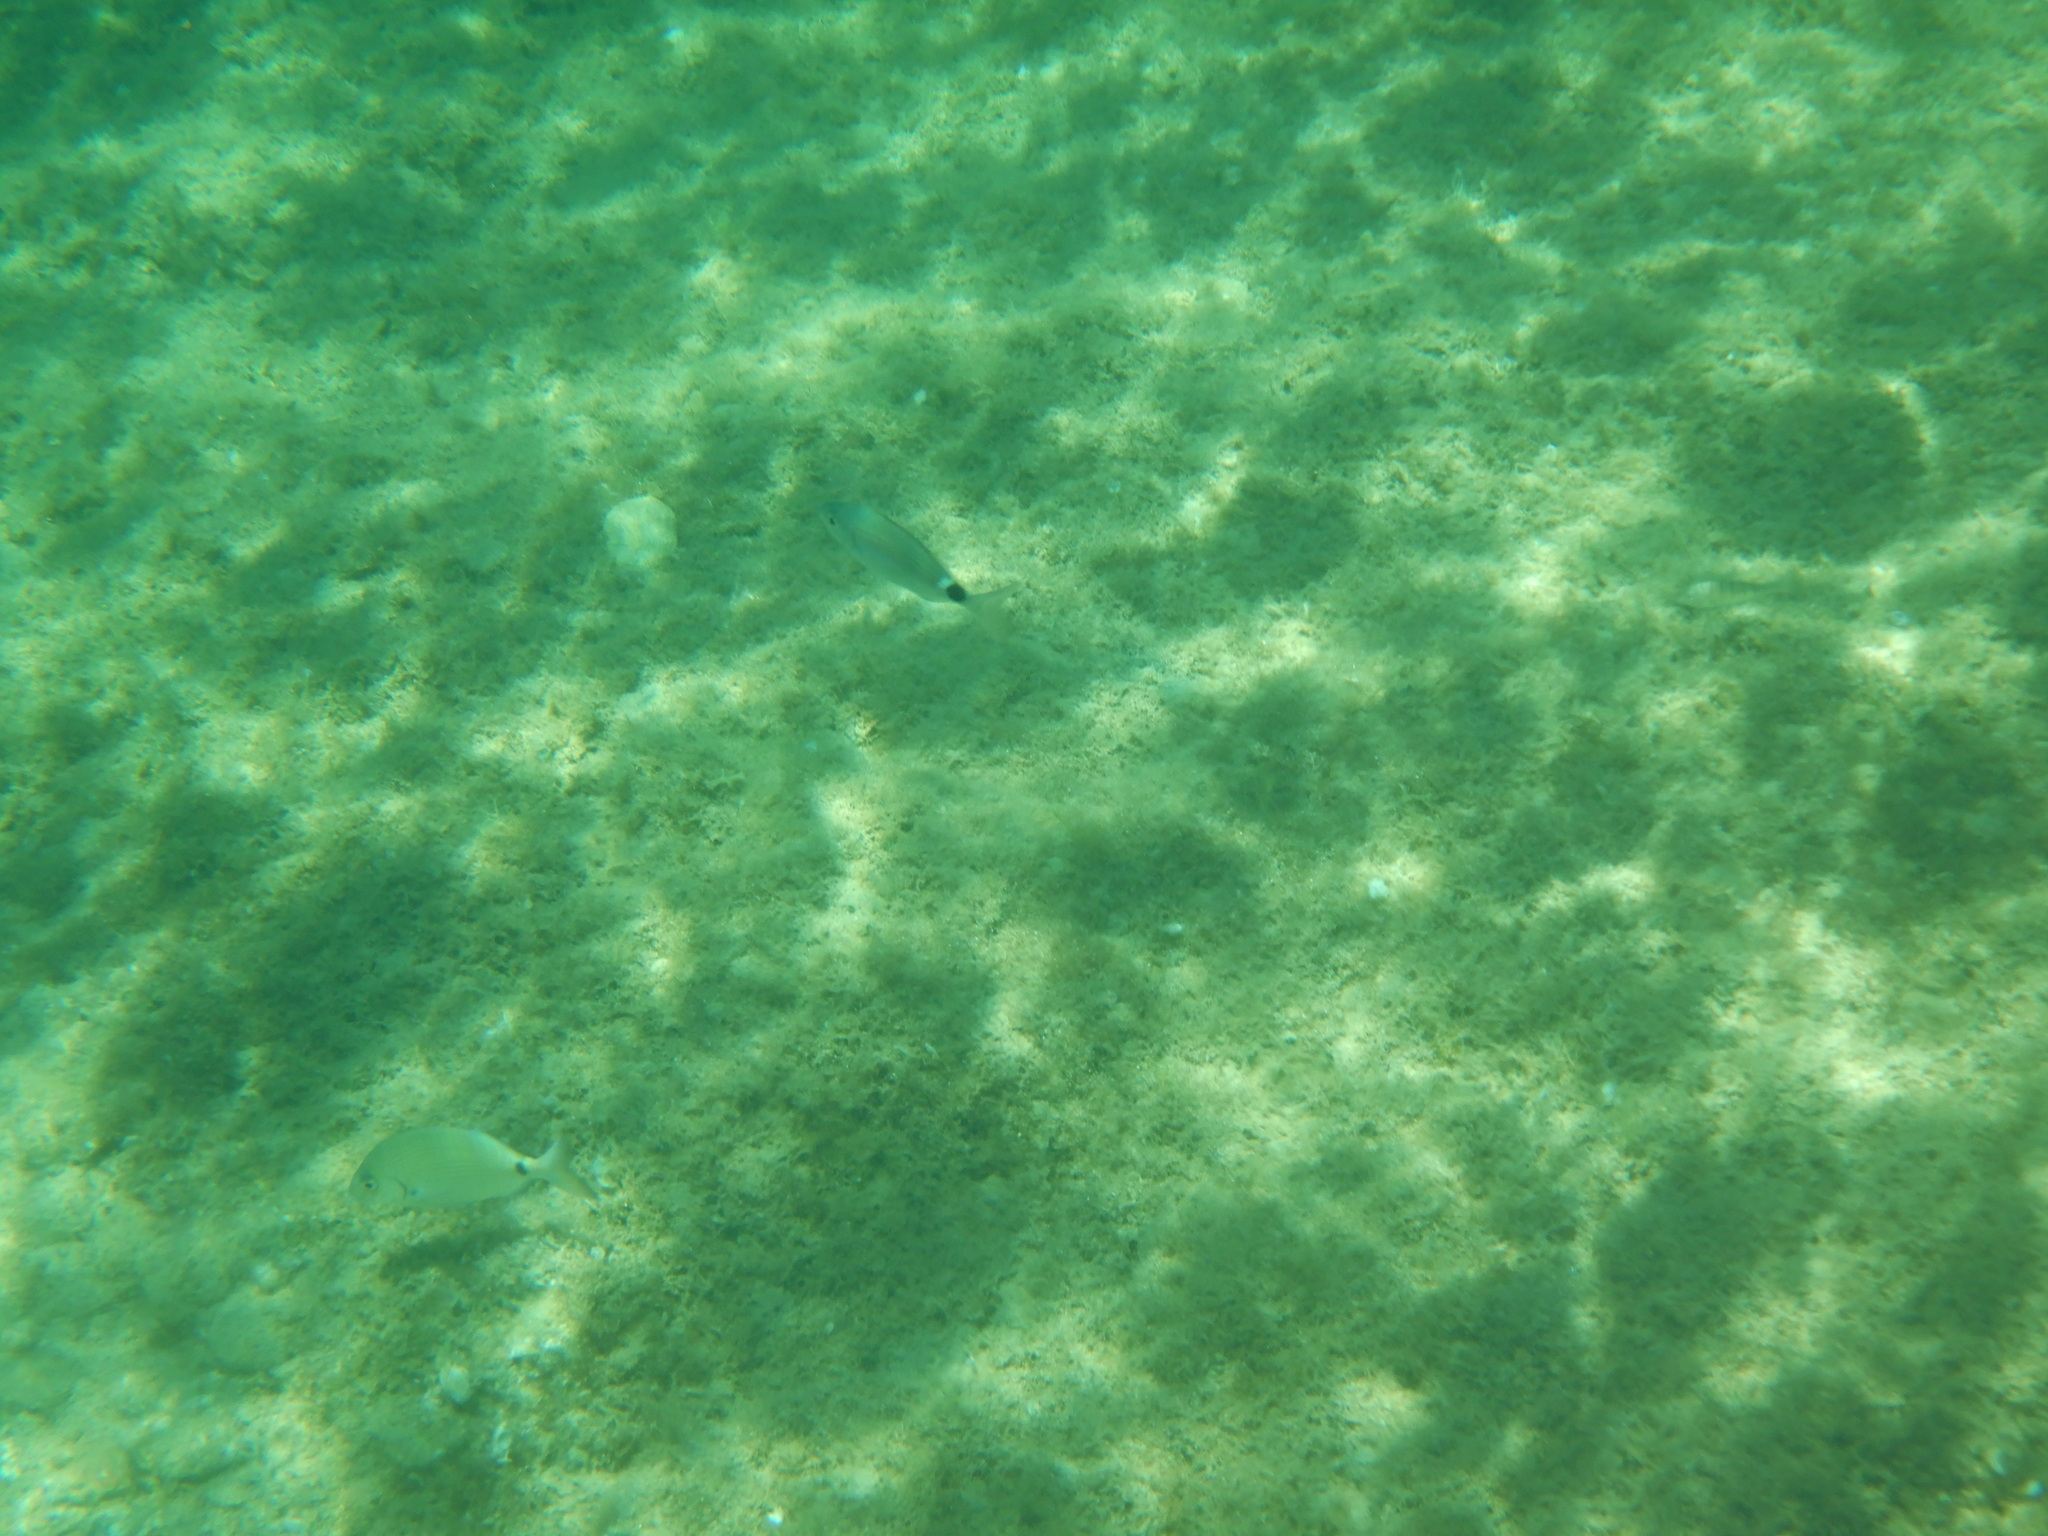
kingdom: Animalia
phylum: Chordata
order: Perciformes
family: Sparidae
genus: Oblada
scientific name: Oblada melanura
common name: Saddled seabream
